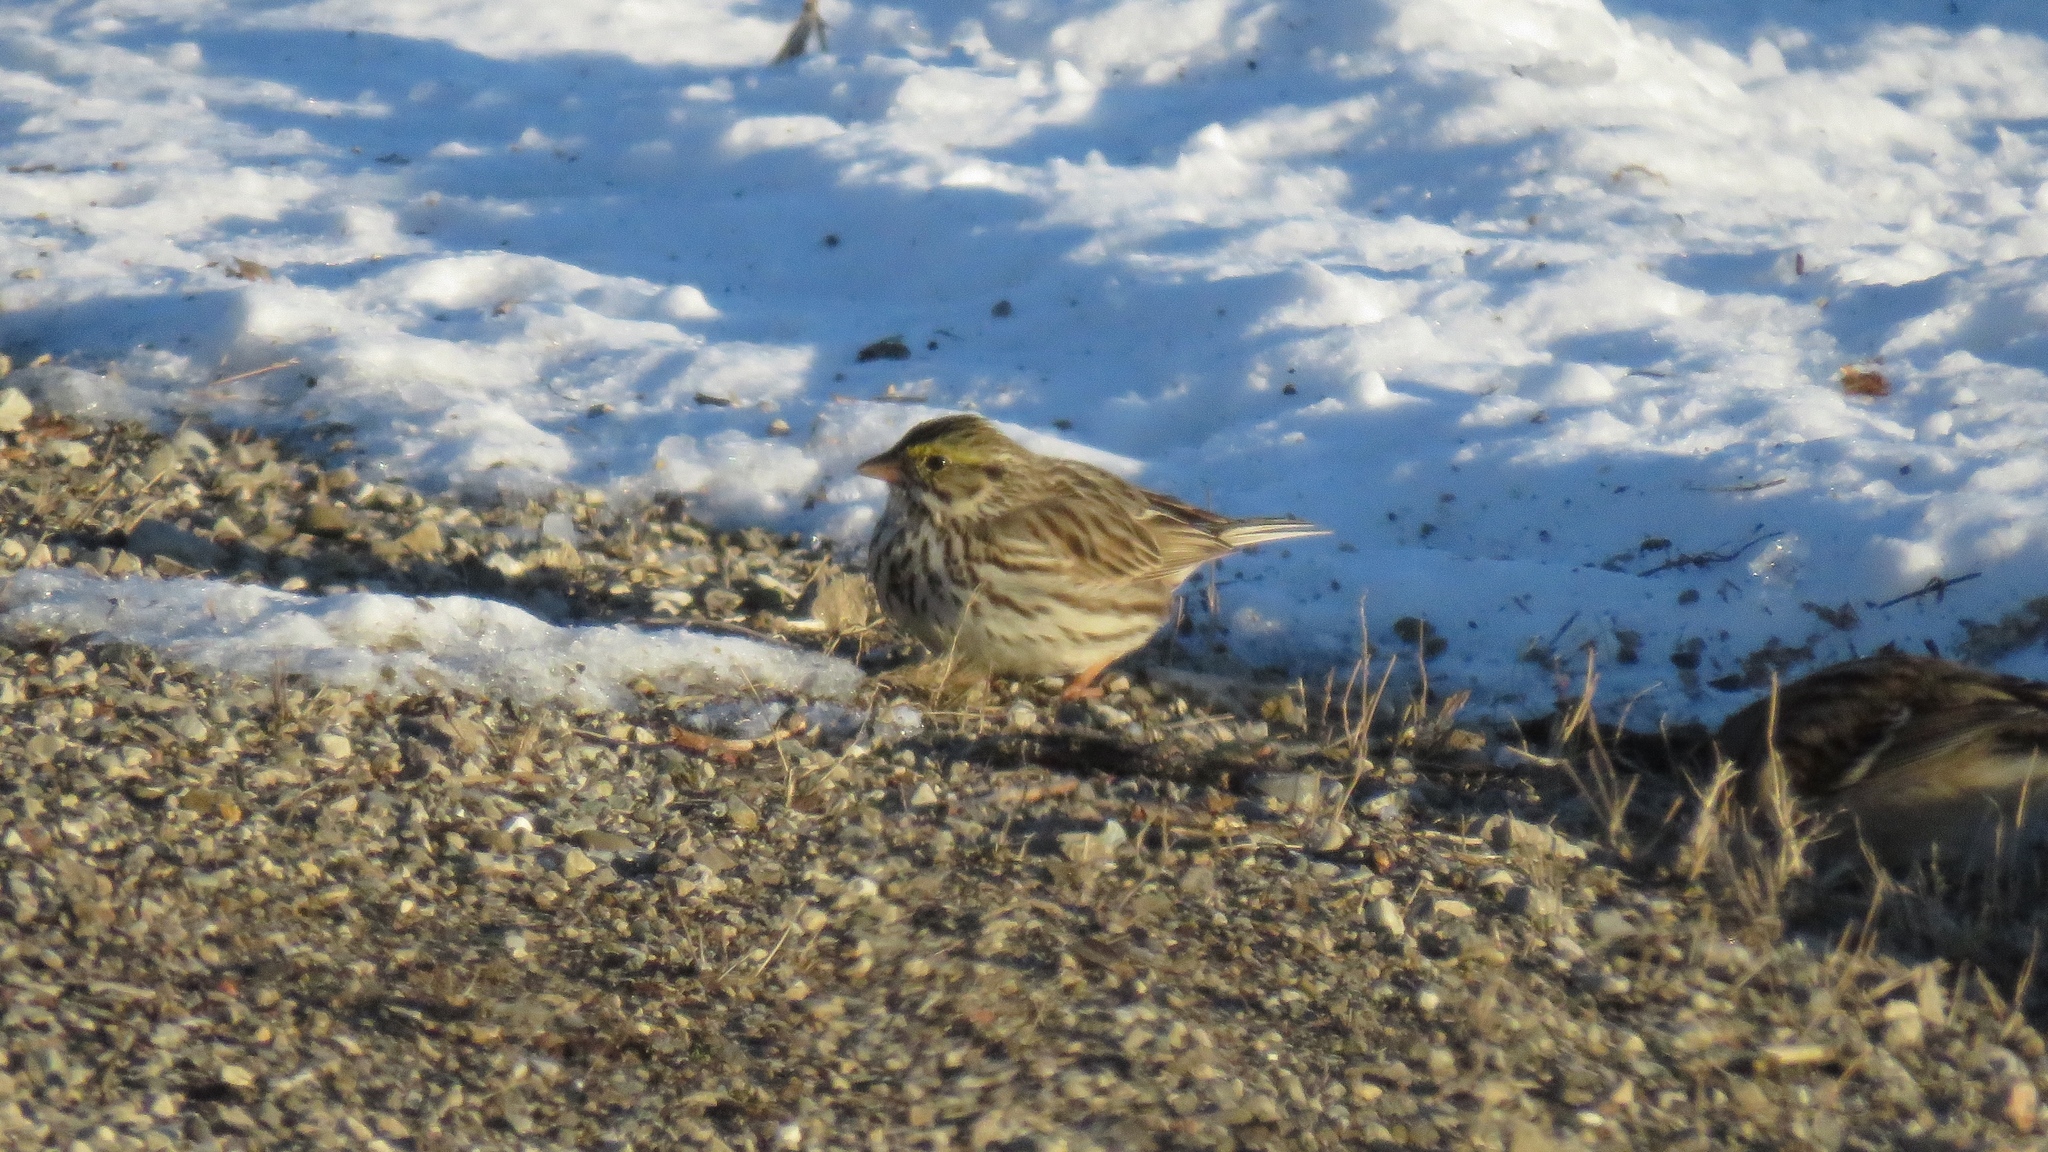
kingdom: Animalia
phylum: Chordata
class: Aves
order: Passeriformes
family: Passerellidae
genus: Passerculus
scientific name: Passerculus sandwichensis
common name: Savannah sparrow
